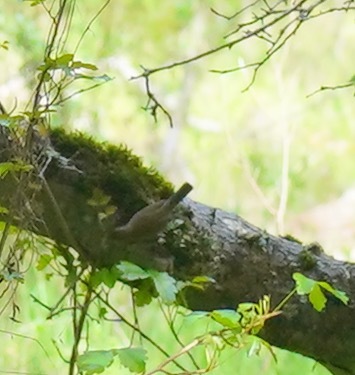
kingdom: Animalia
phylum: Chordata
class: Aves
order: Passeriformes
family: Troglodytidae
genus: Thryomanes
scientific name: Thryomanes bewickii
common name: Bewick's wren
